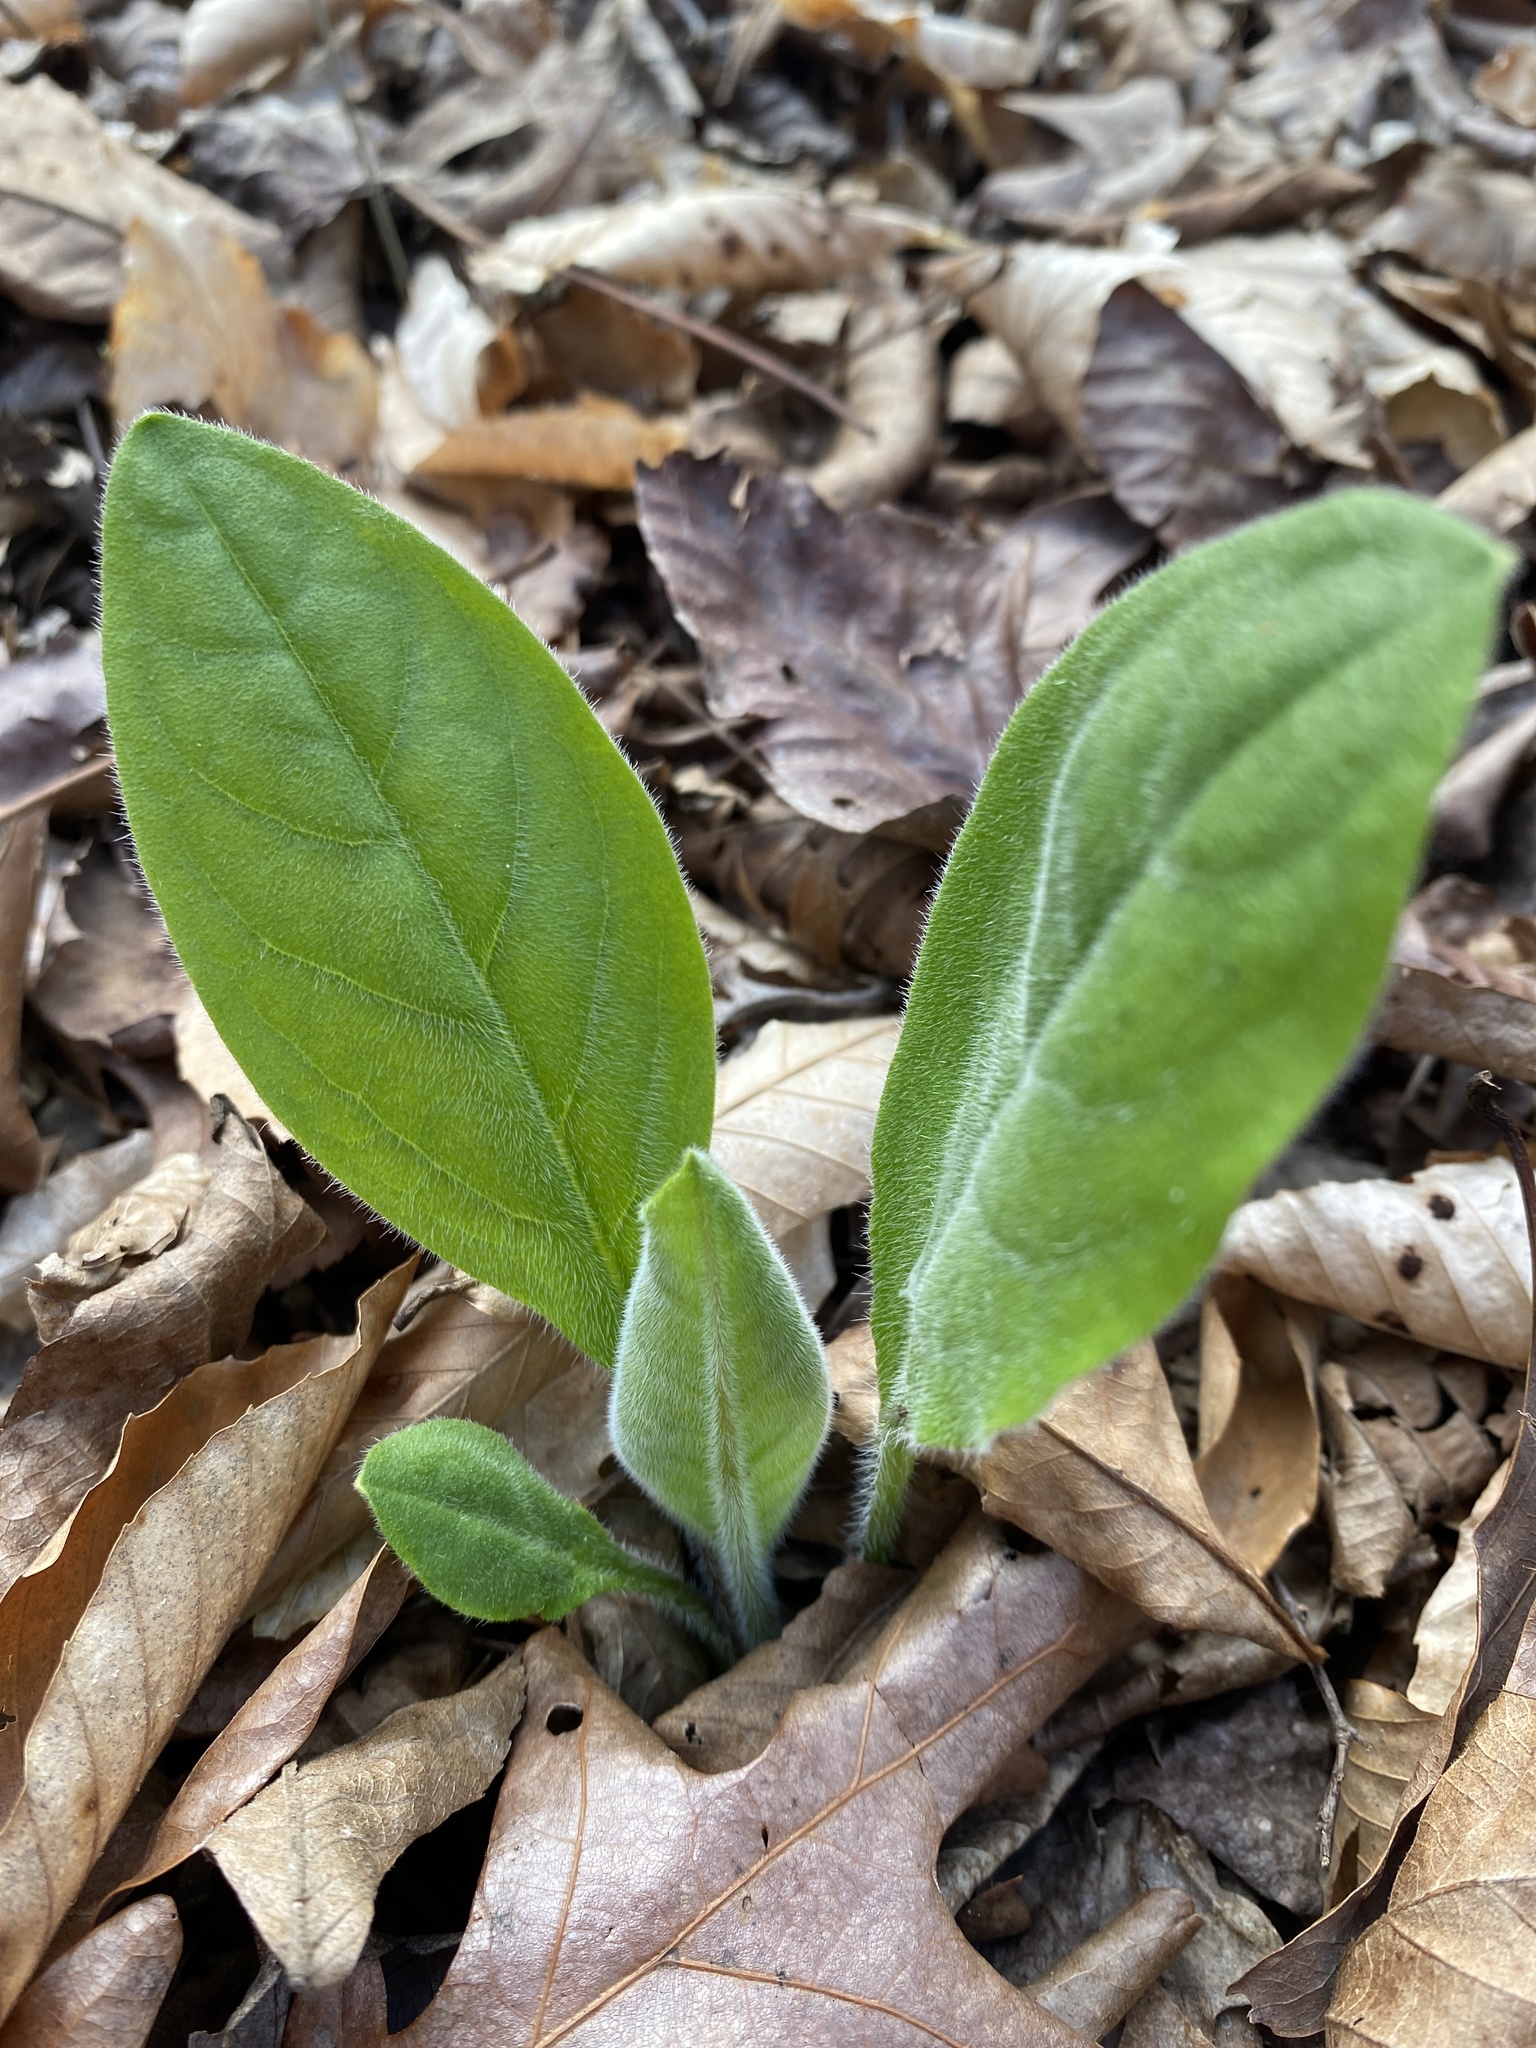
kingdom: Plantae
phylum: Tracheophyta
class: Magnoliopsida
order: Boraginales
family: Boraginaceae
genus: Andersonglossum
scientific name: Andersonglossum virginianum
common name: Wild comfrey
